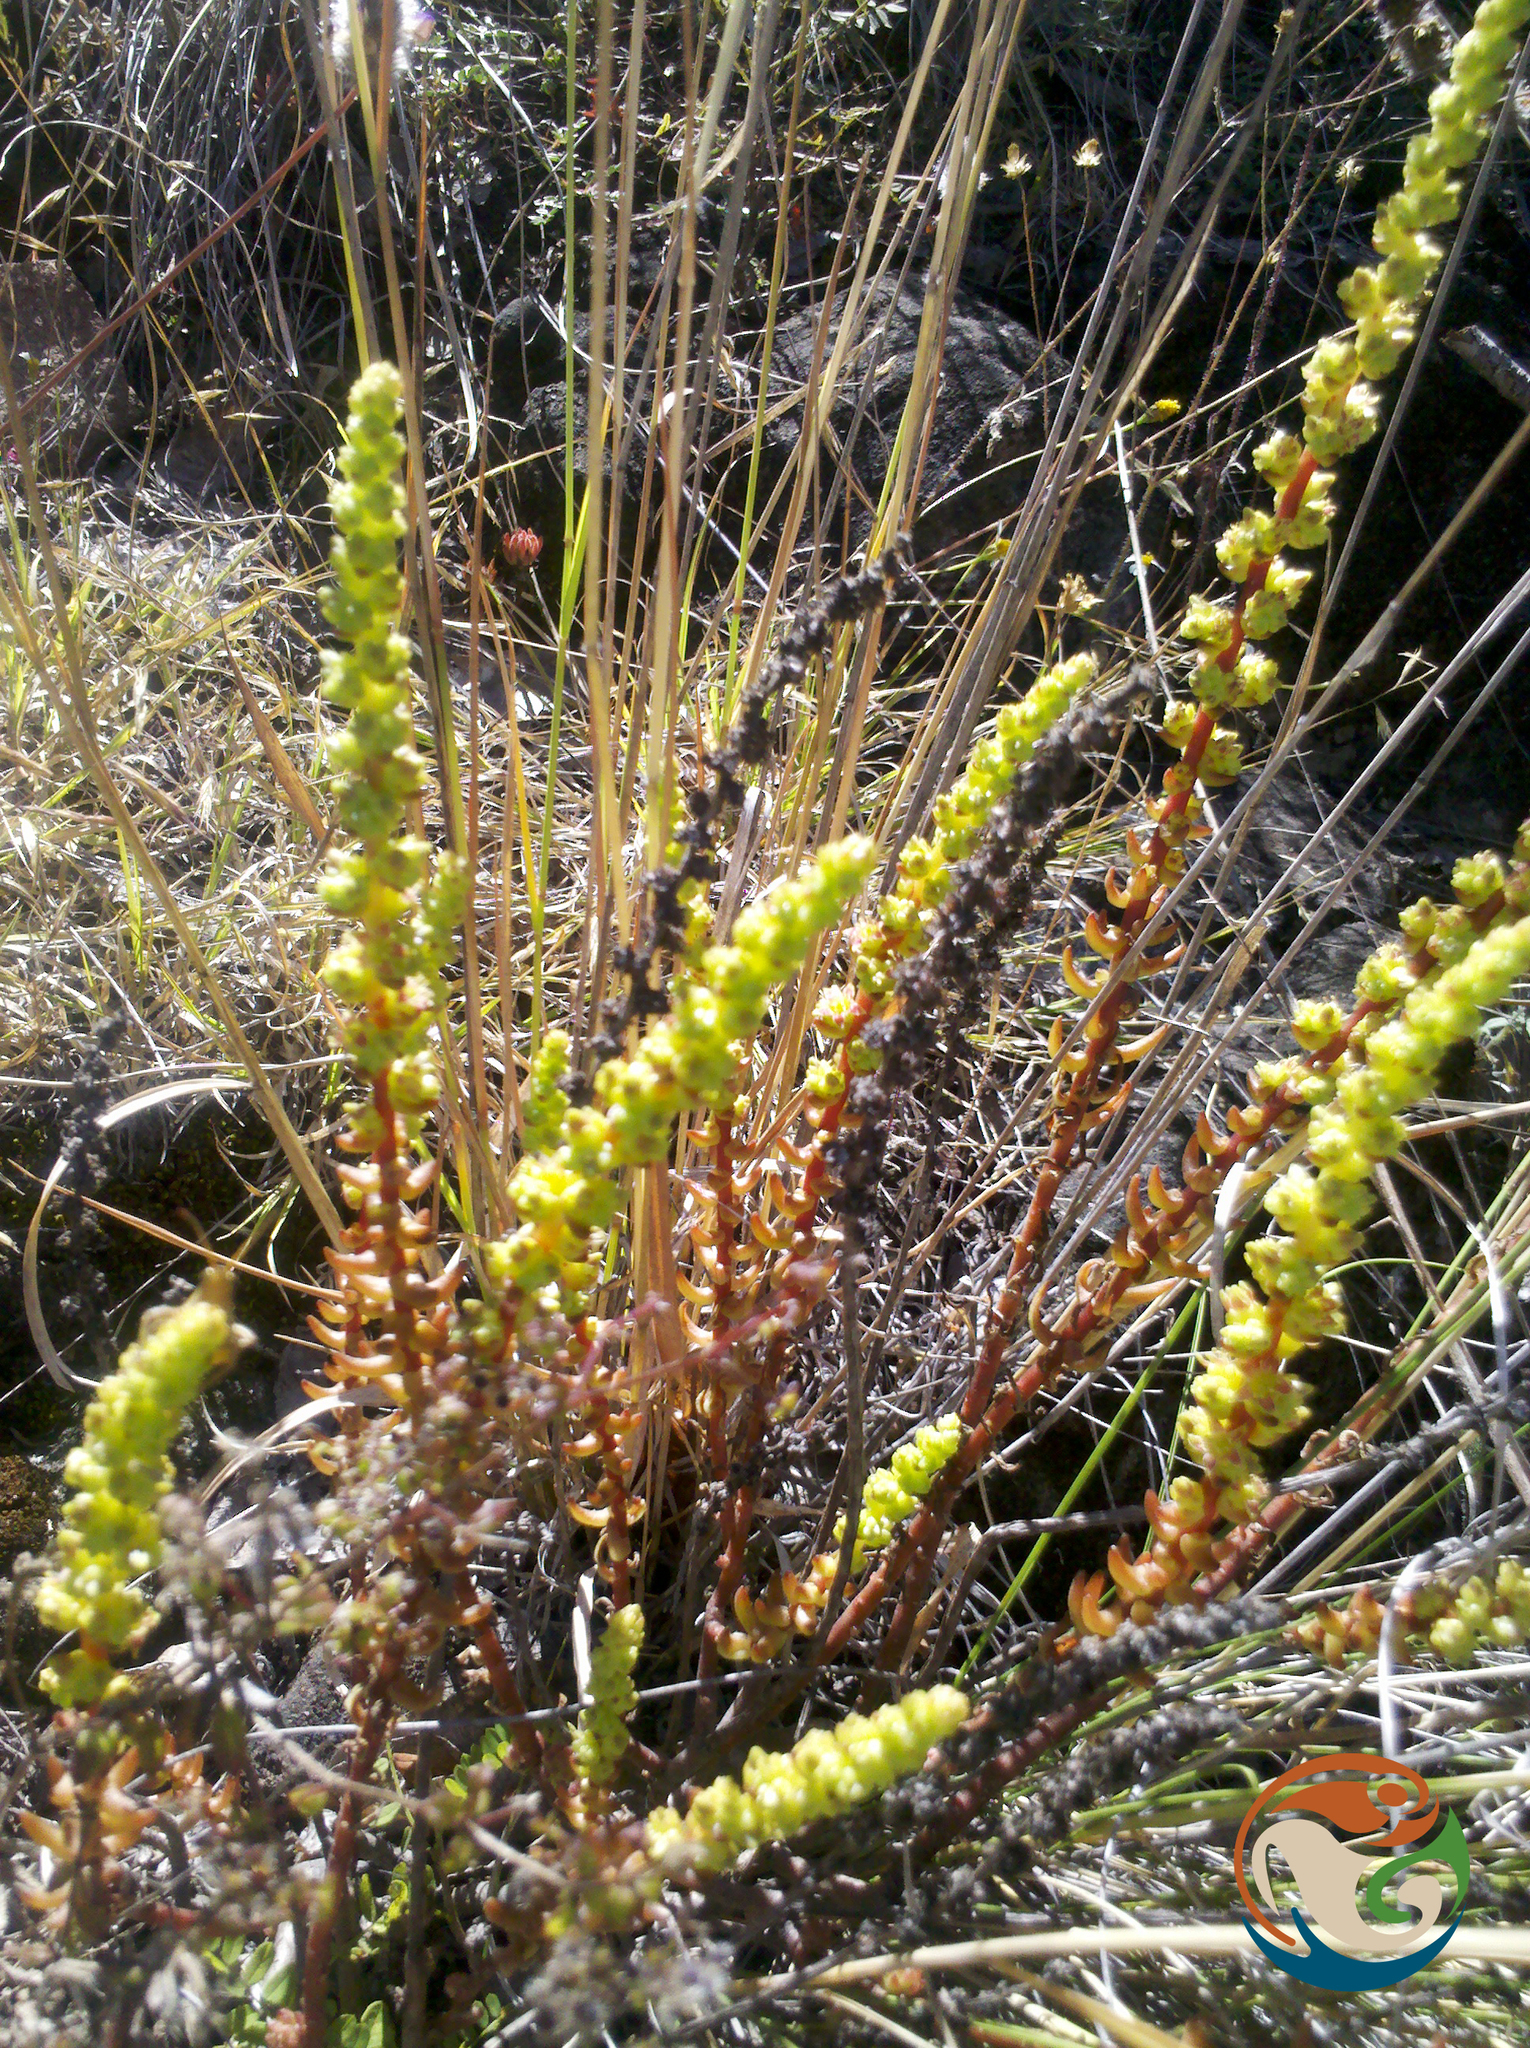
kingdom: Plantae
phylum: Tracheophyta
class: Magnoliopsida
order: Saxifragales
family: Crassulaceae
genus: Villadia
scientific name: Villadia guatemalensis
